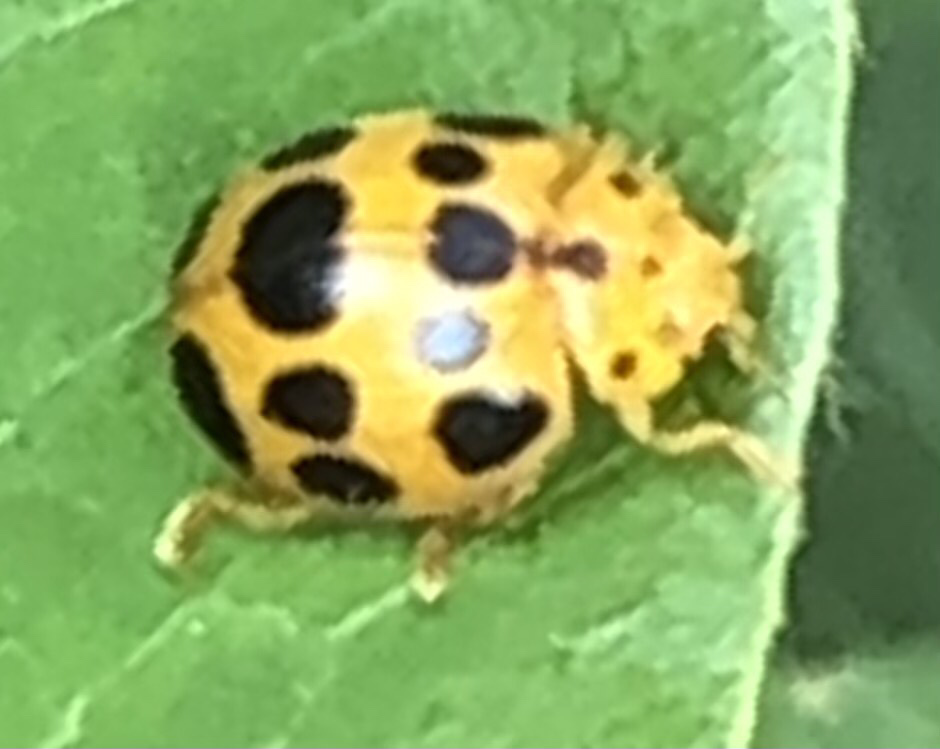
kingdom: Animalia
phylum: Arthropoda
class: Insecta
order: Coleoptera
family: Coccinellidae
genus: Epilachna
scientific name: Epilachna borealis
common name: Squash beetle
